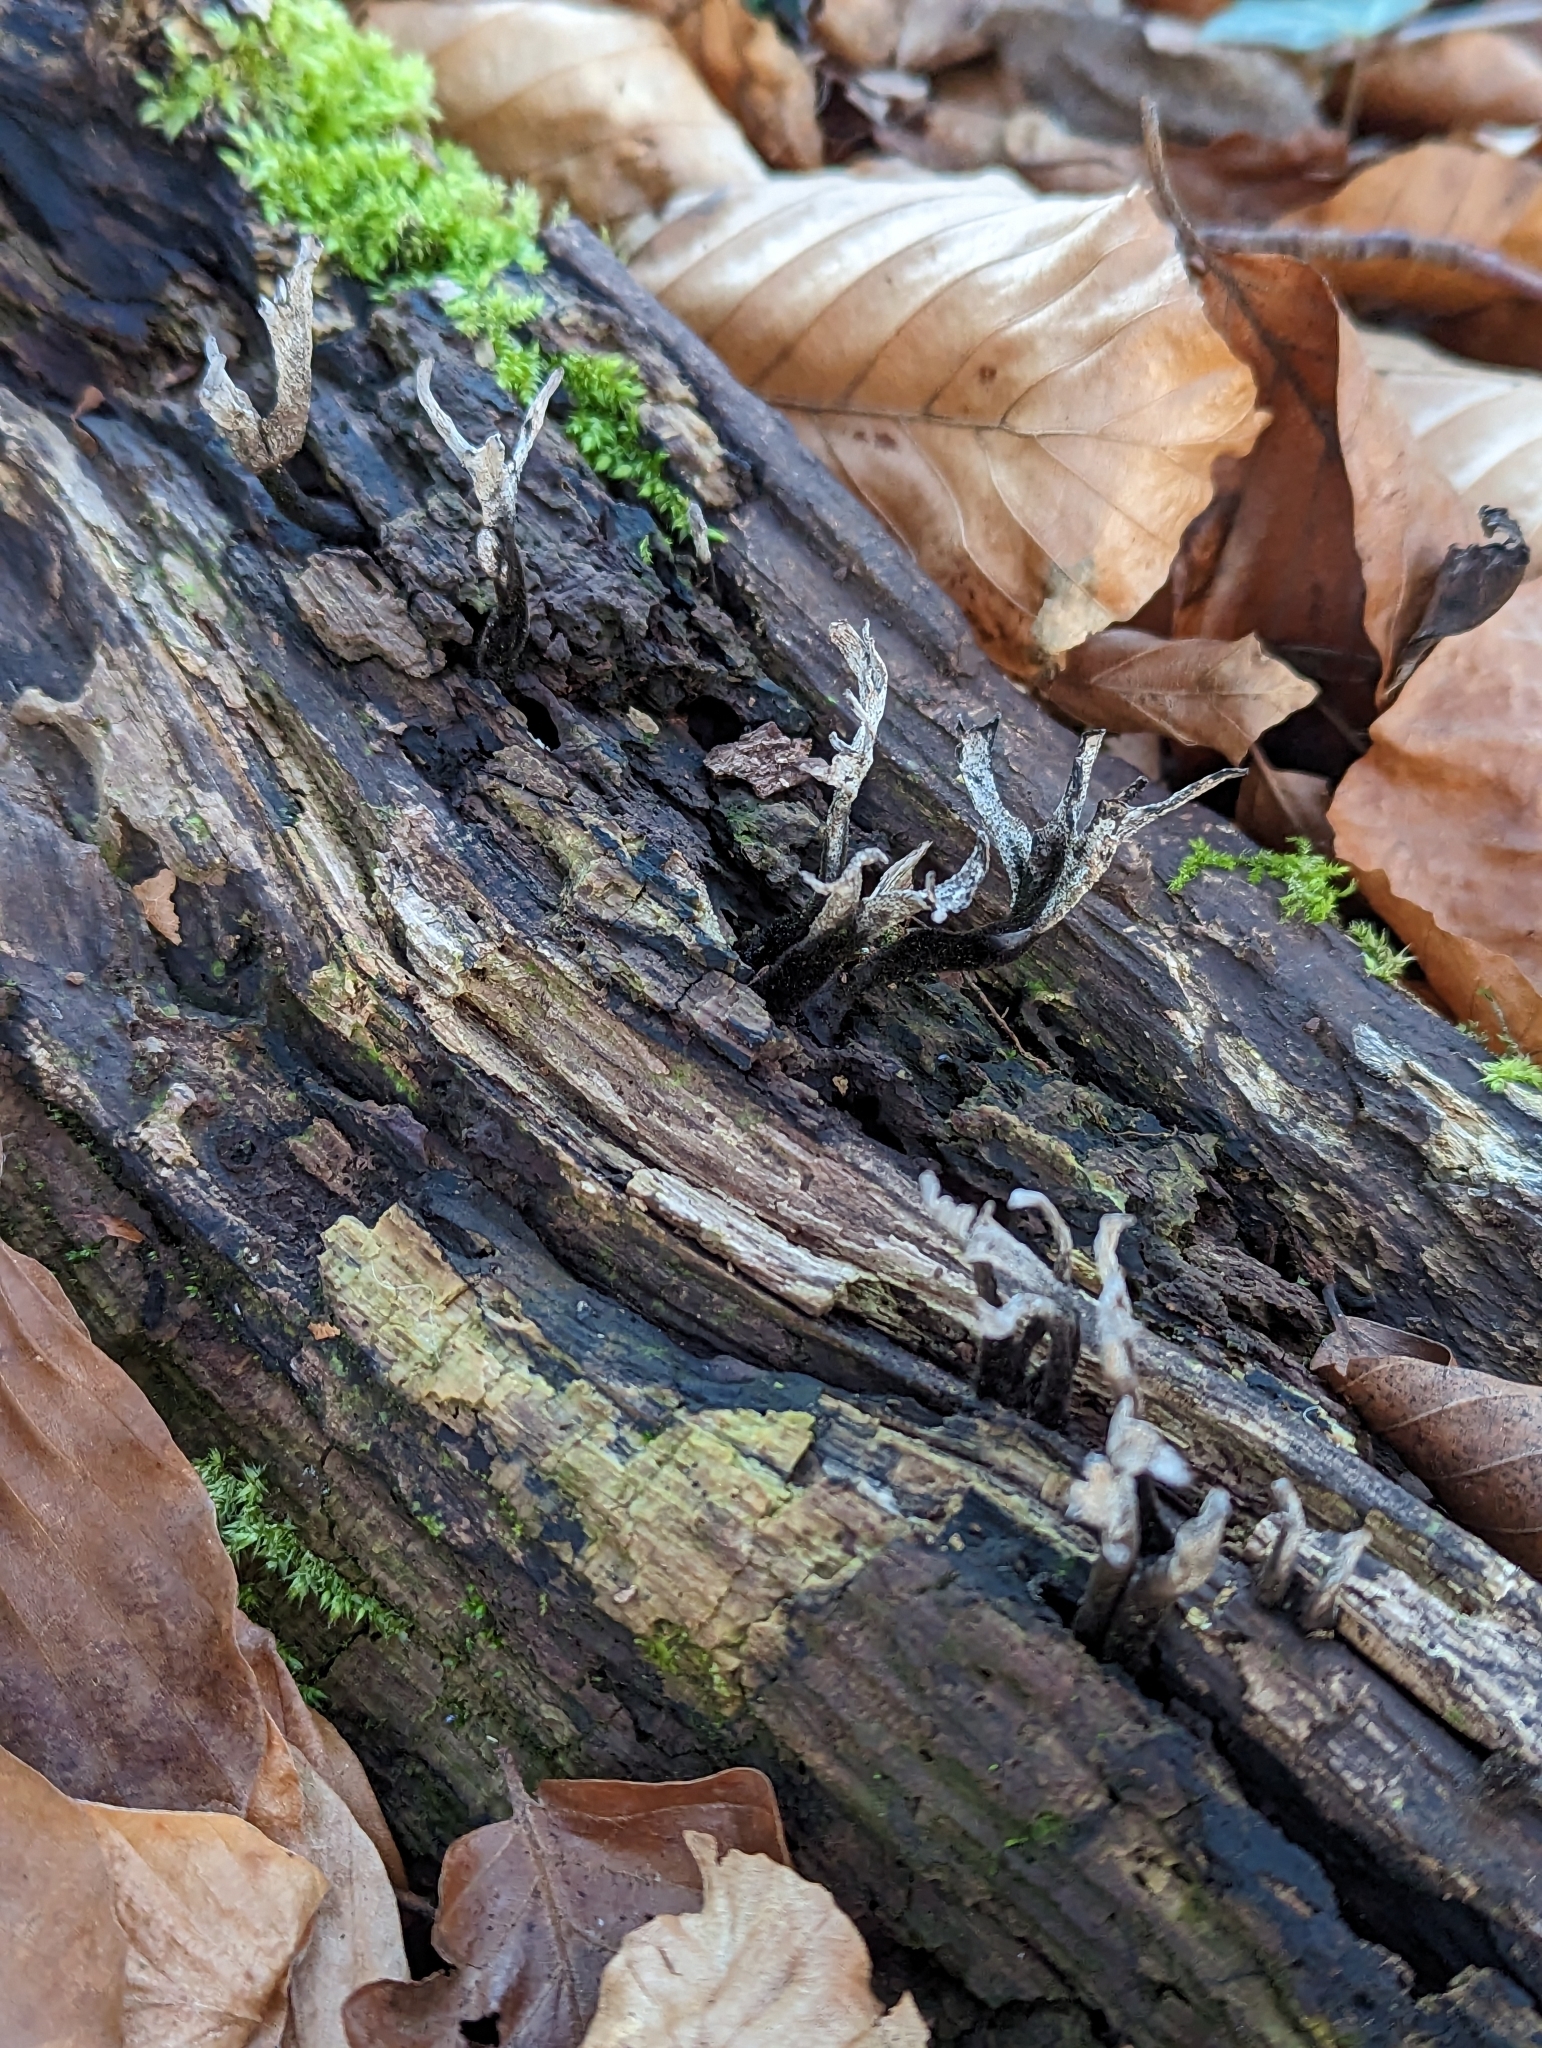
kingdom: Fungi
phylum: Ascomycota
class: Sordariomycetes
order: Xylariales
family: Xylariaceae
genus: Xylaria
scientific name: Xylaria hypoxylon
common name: Candle-snuff fungus
